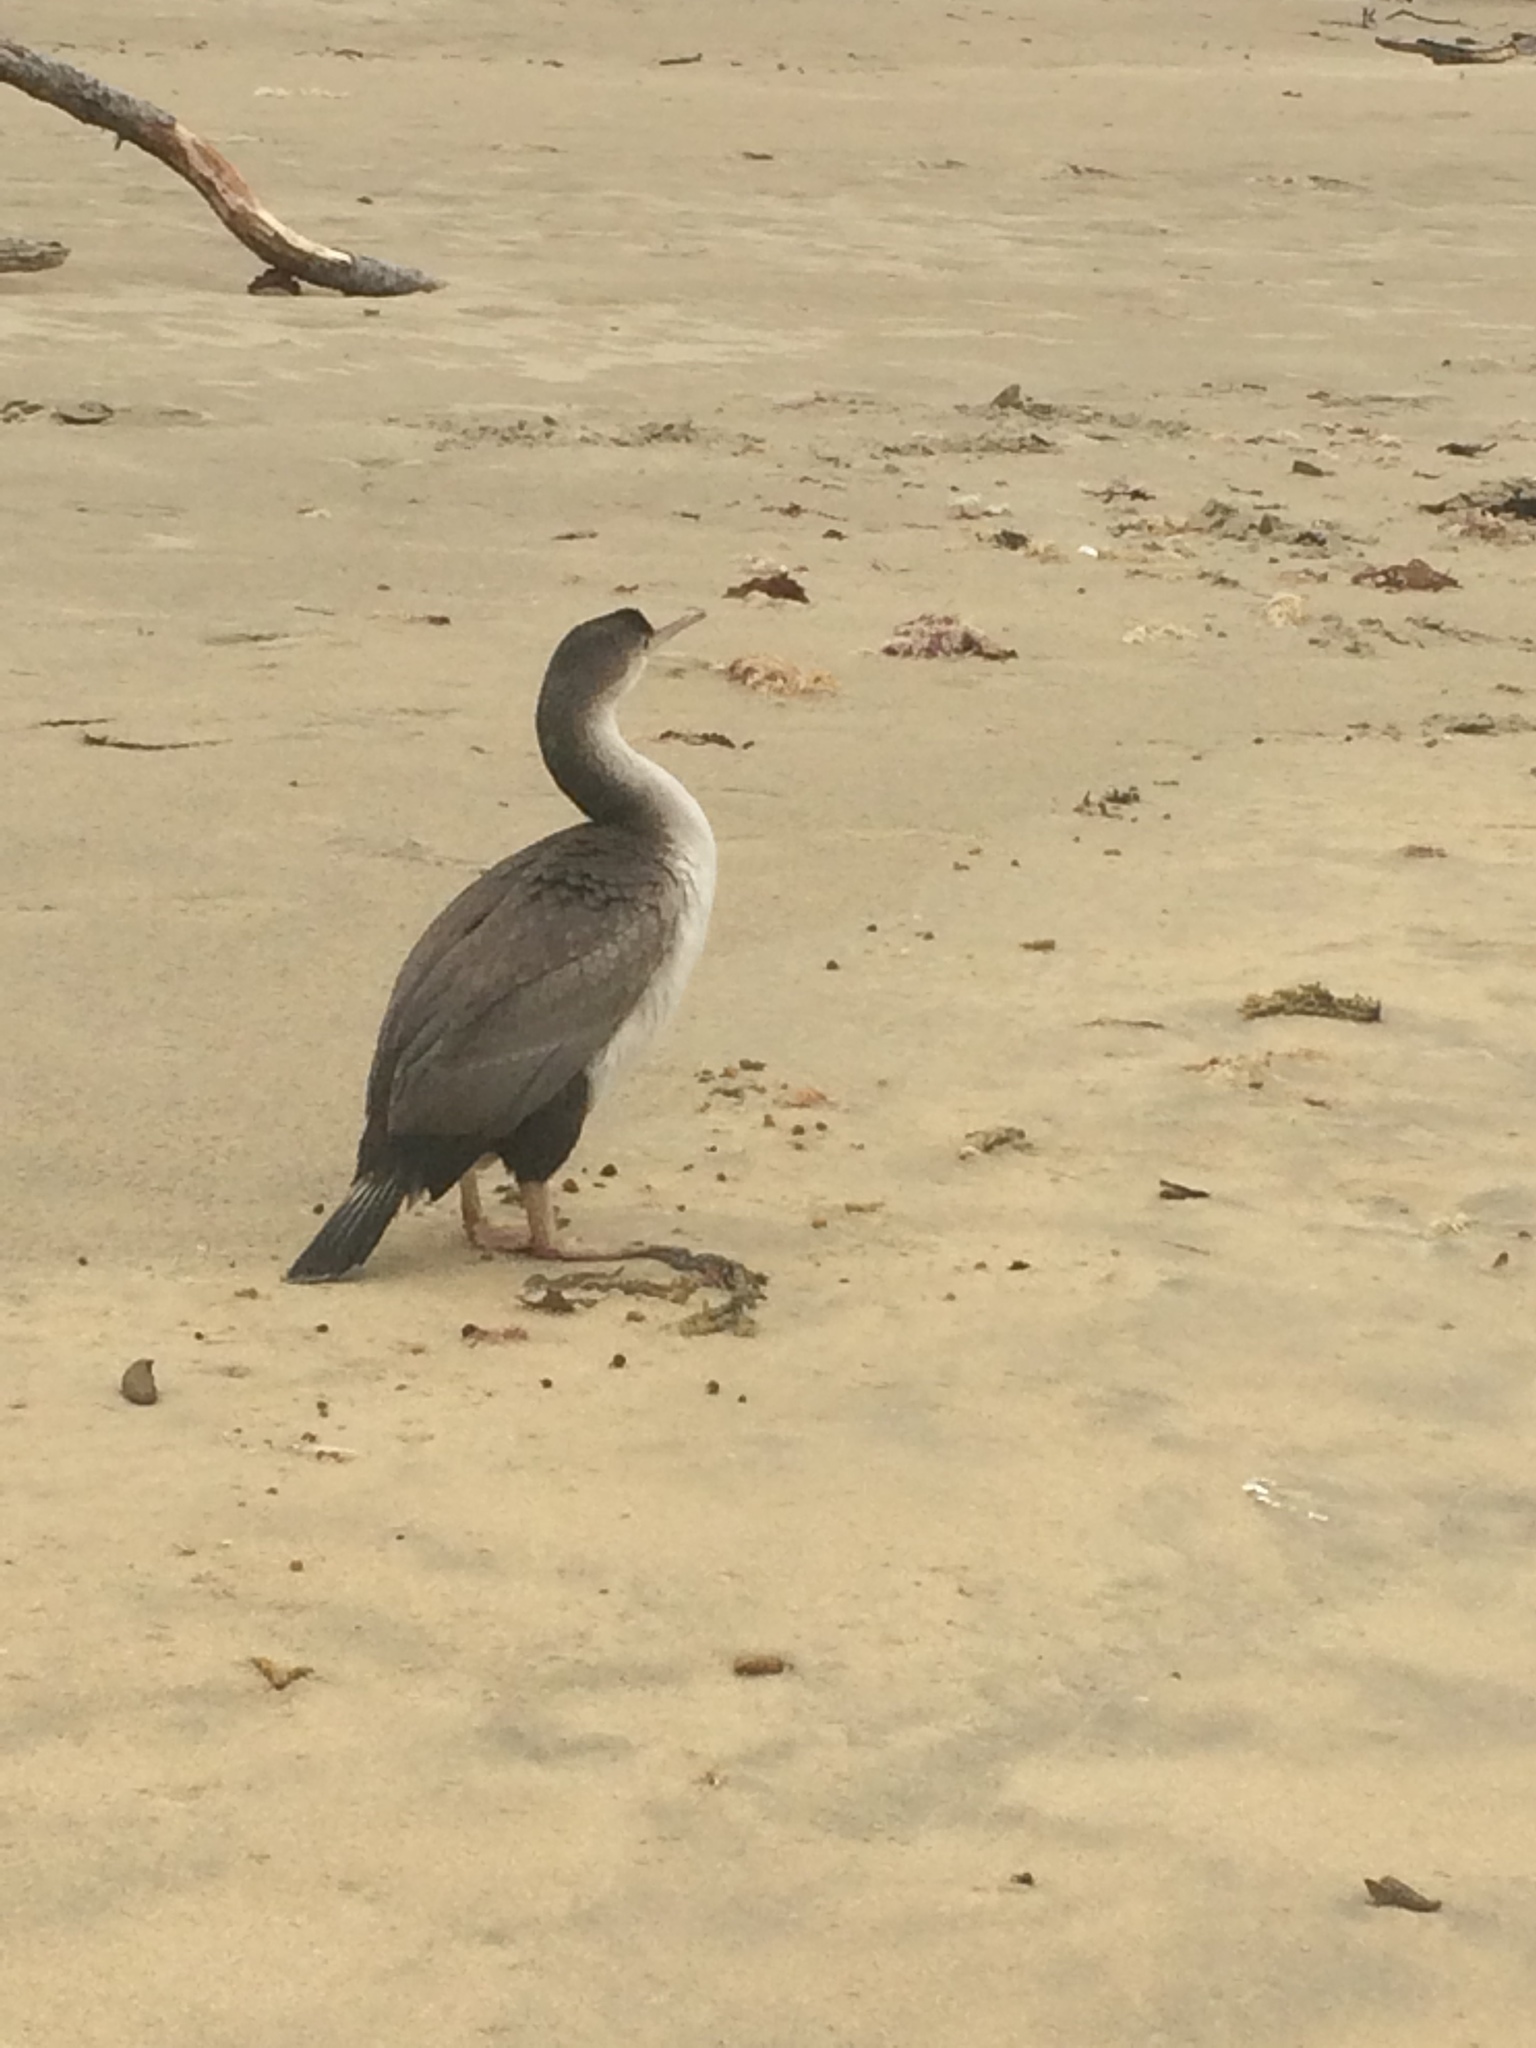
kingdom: Animalia
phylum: Chordata
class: Aves
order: Suliformes
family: Phalacrocoracidae
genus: Phalacrocorax
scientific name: Phalacrocorax punctatus
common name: Spotted shag
